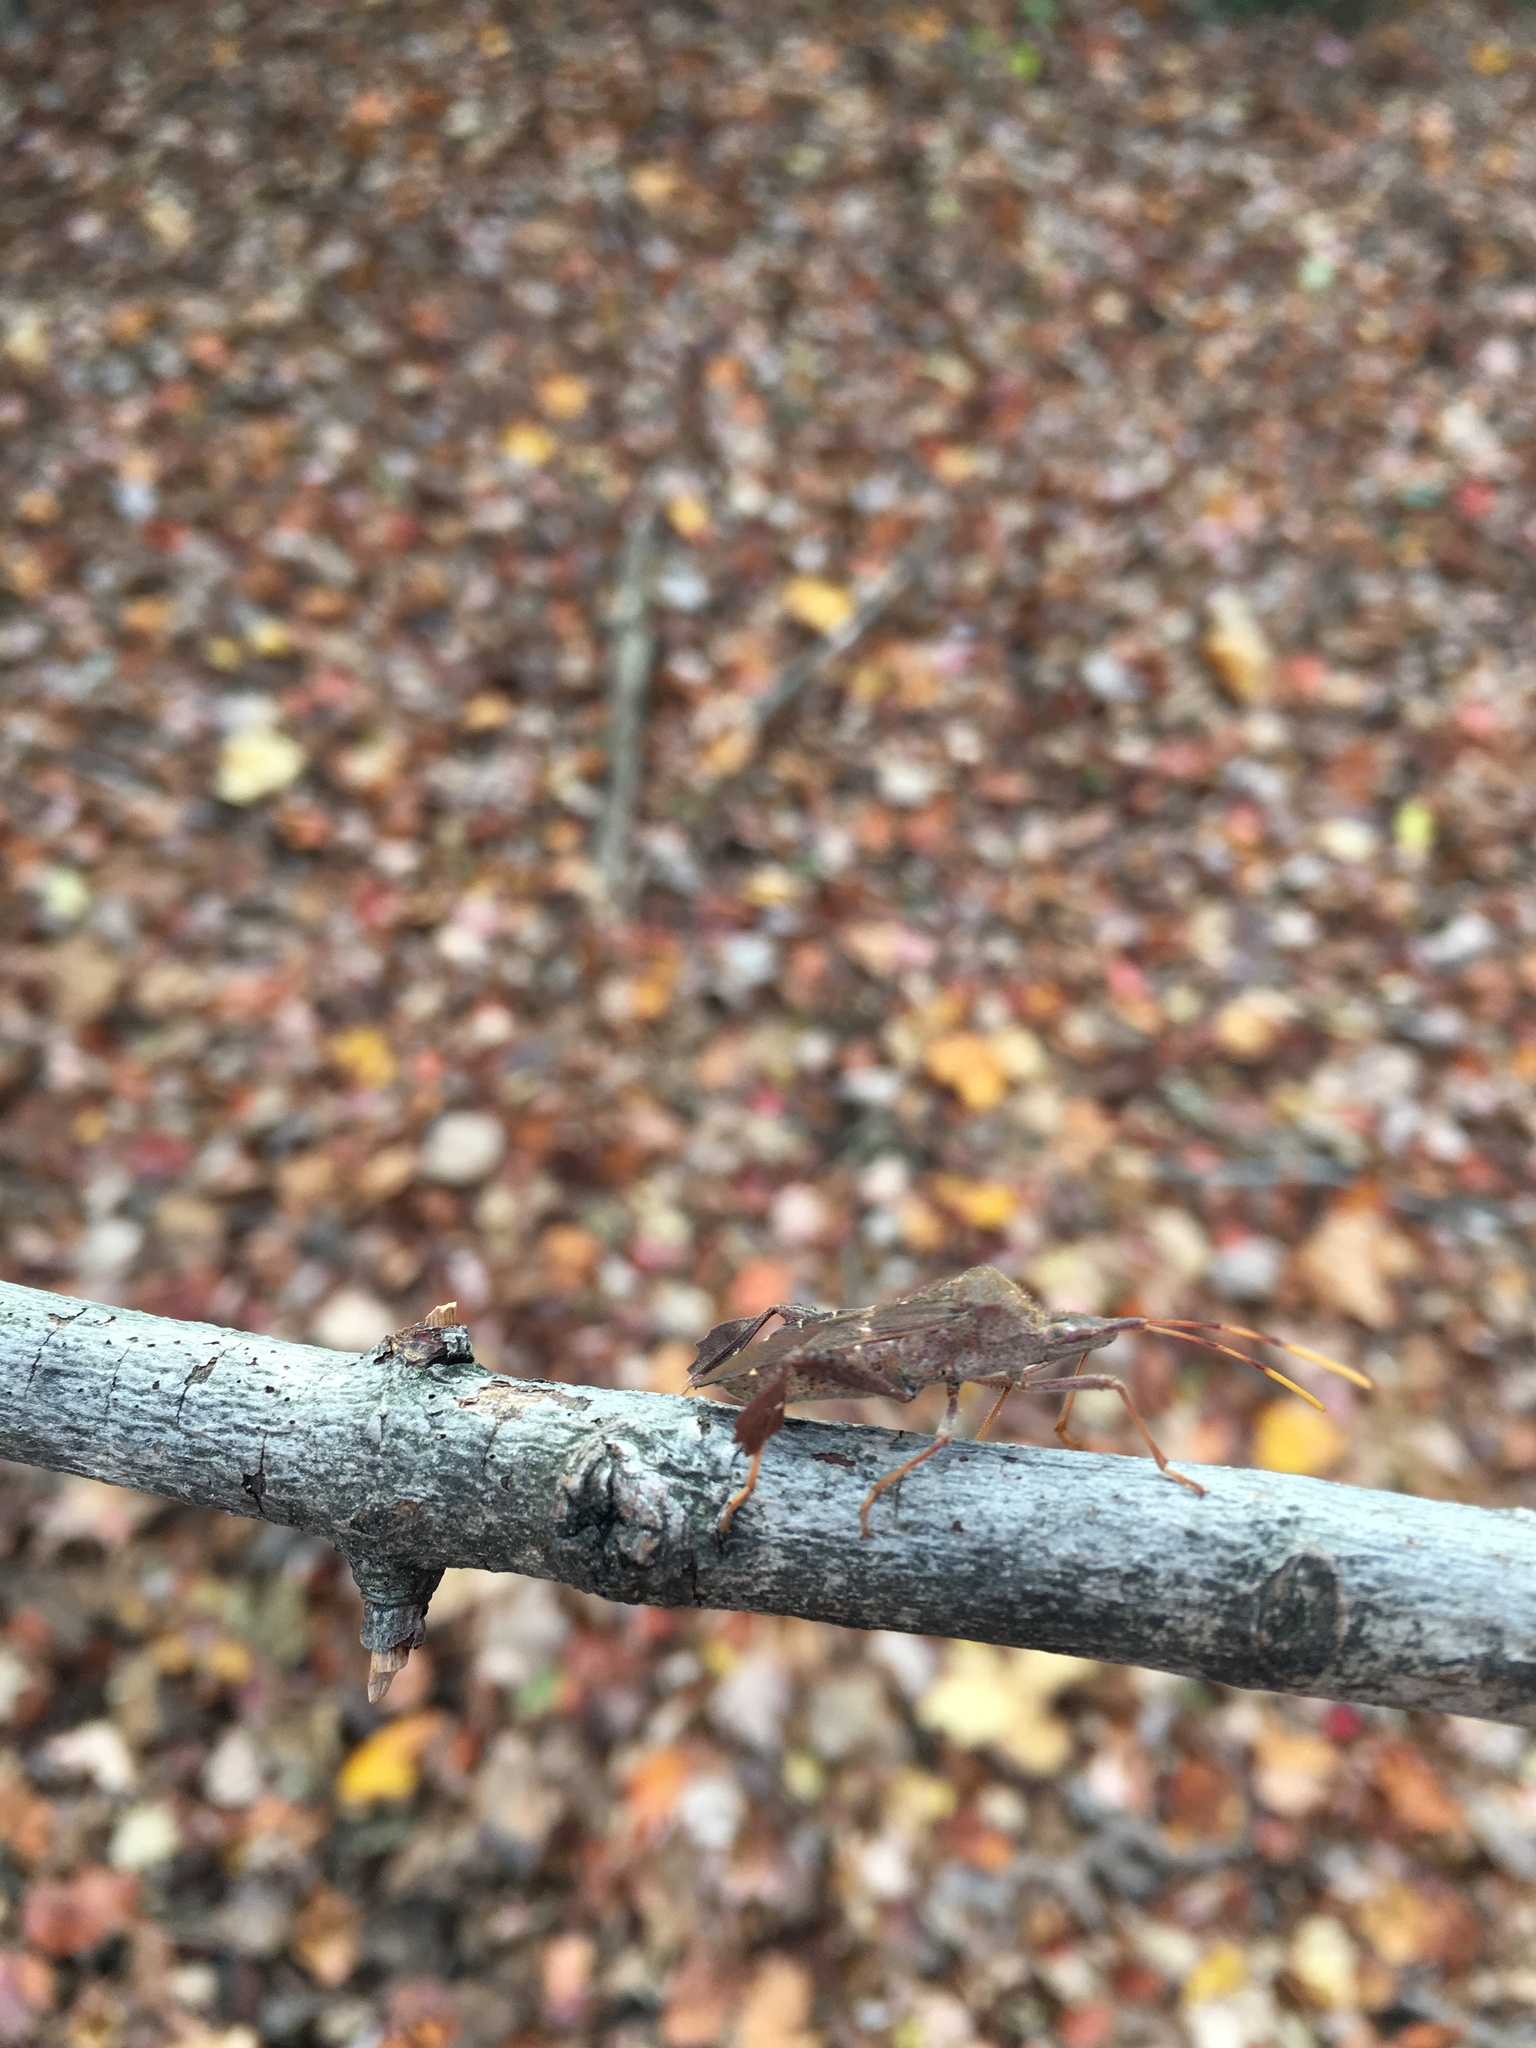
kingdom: Animalia
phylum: Arthropoda
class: Insecta
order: Hemiptera
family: Coreidae
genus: Leptoglossus
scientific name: Leptoglossus oppositus
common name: Northern leaf-footed bug
